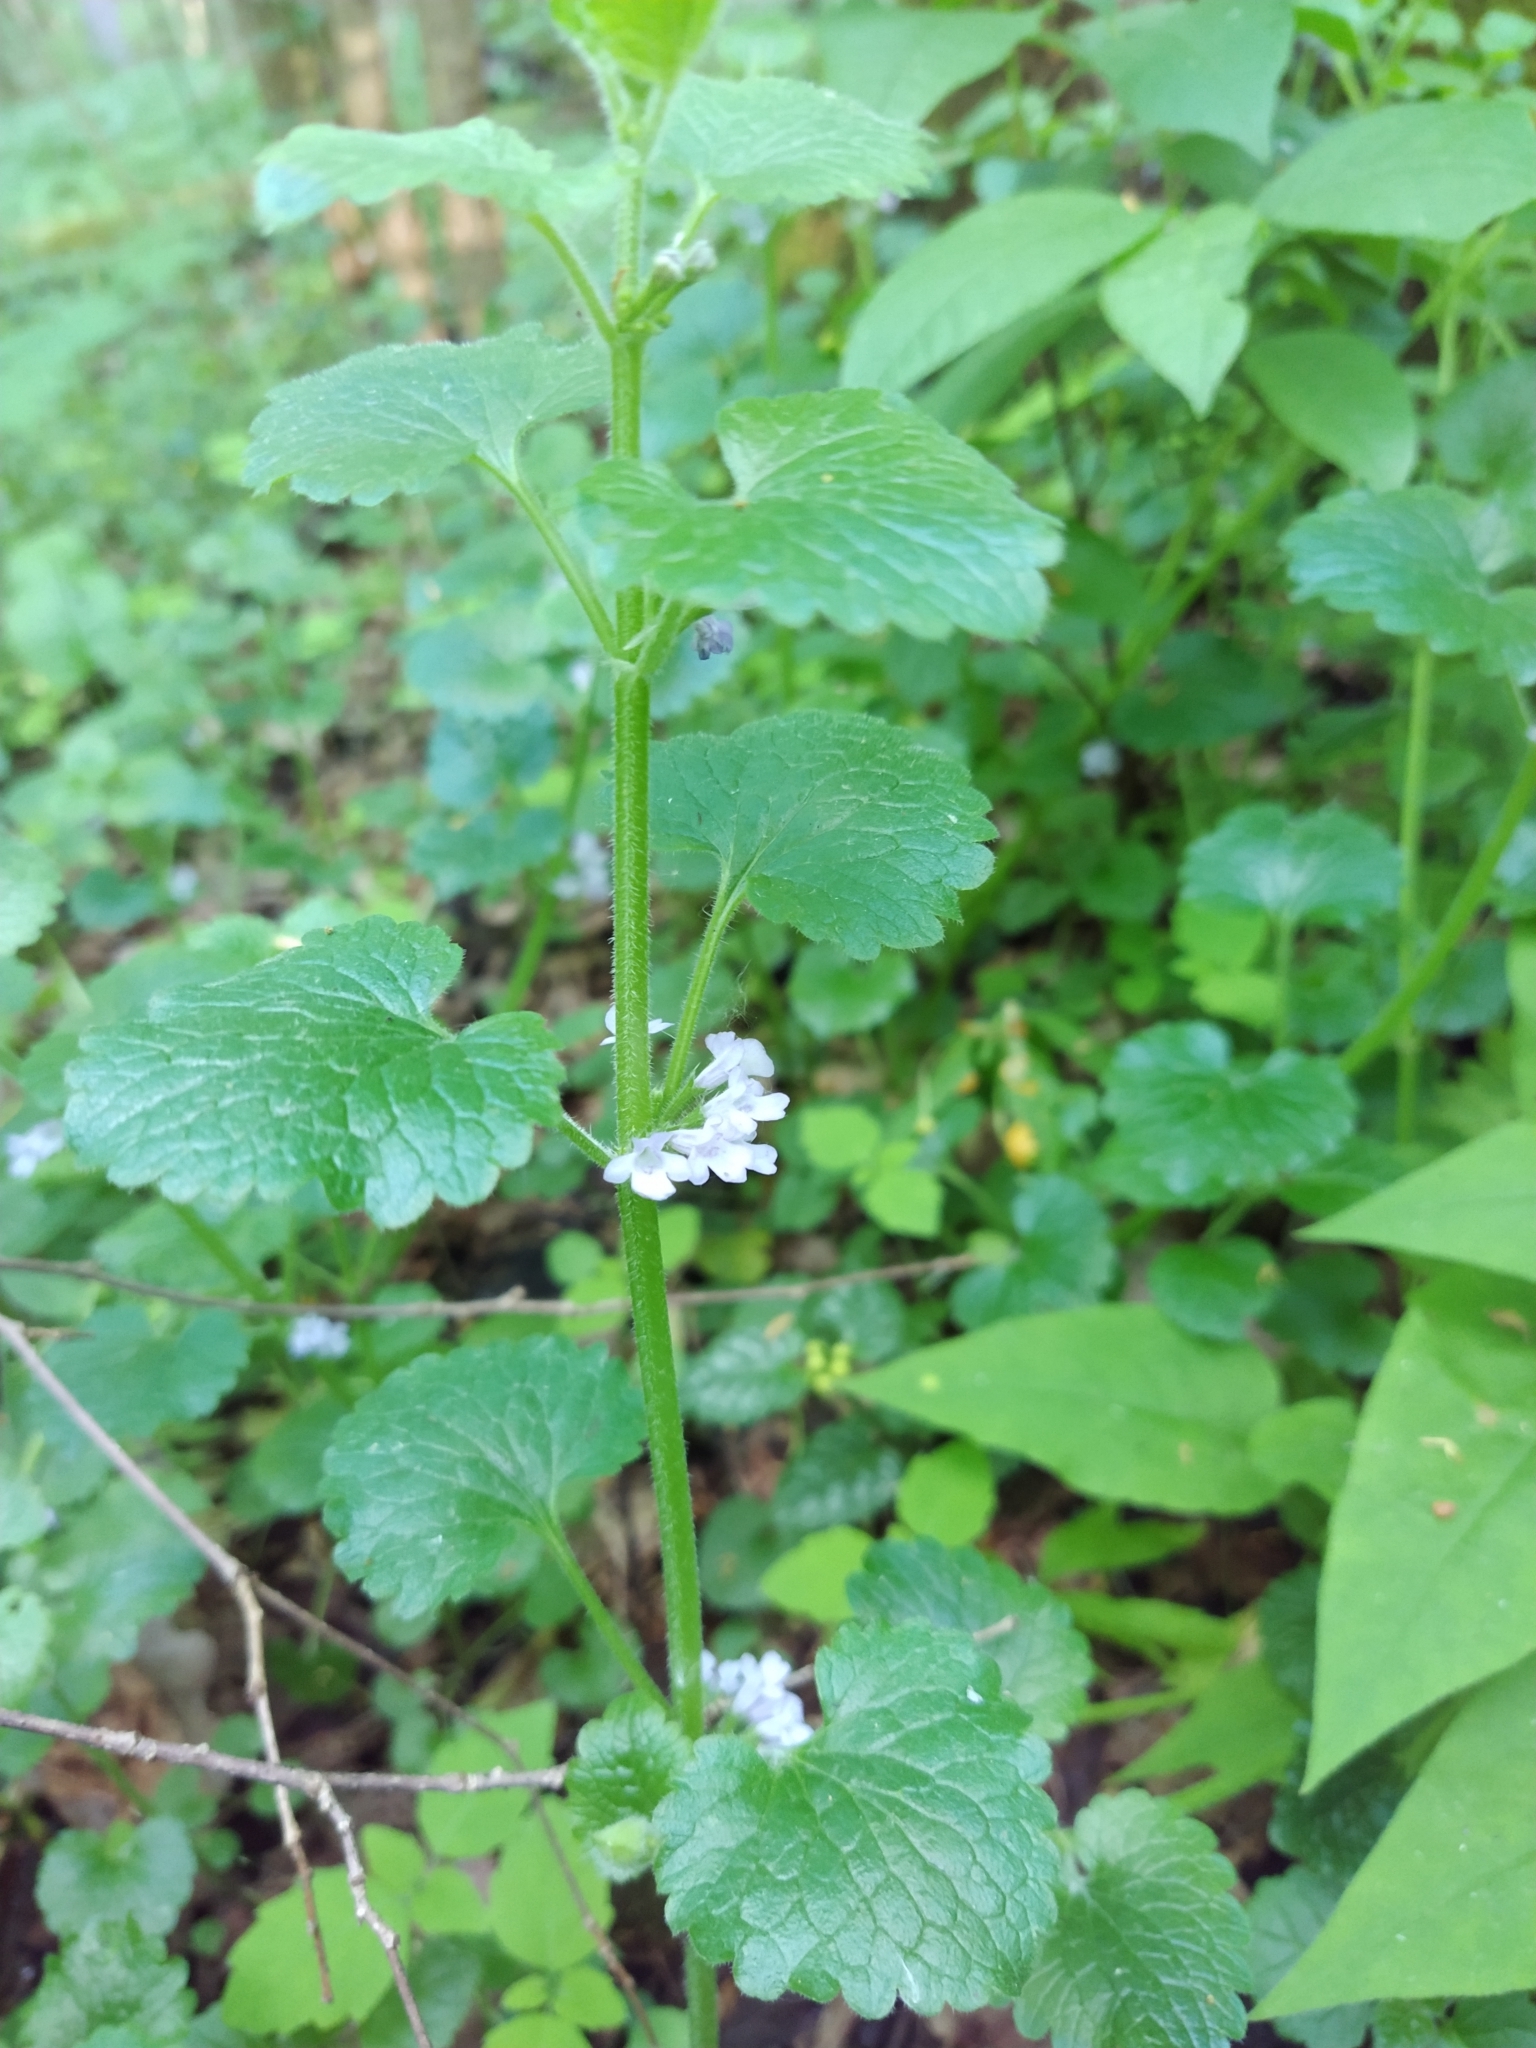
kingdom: Plantae
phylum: Tracheophyta
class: Magnoliopsida
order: Lamiales
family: Lamiaceae
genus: Glechoma
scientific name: Glechoma hederacea
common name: Ground ivy
